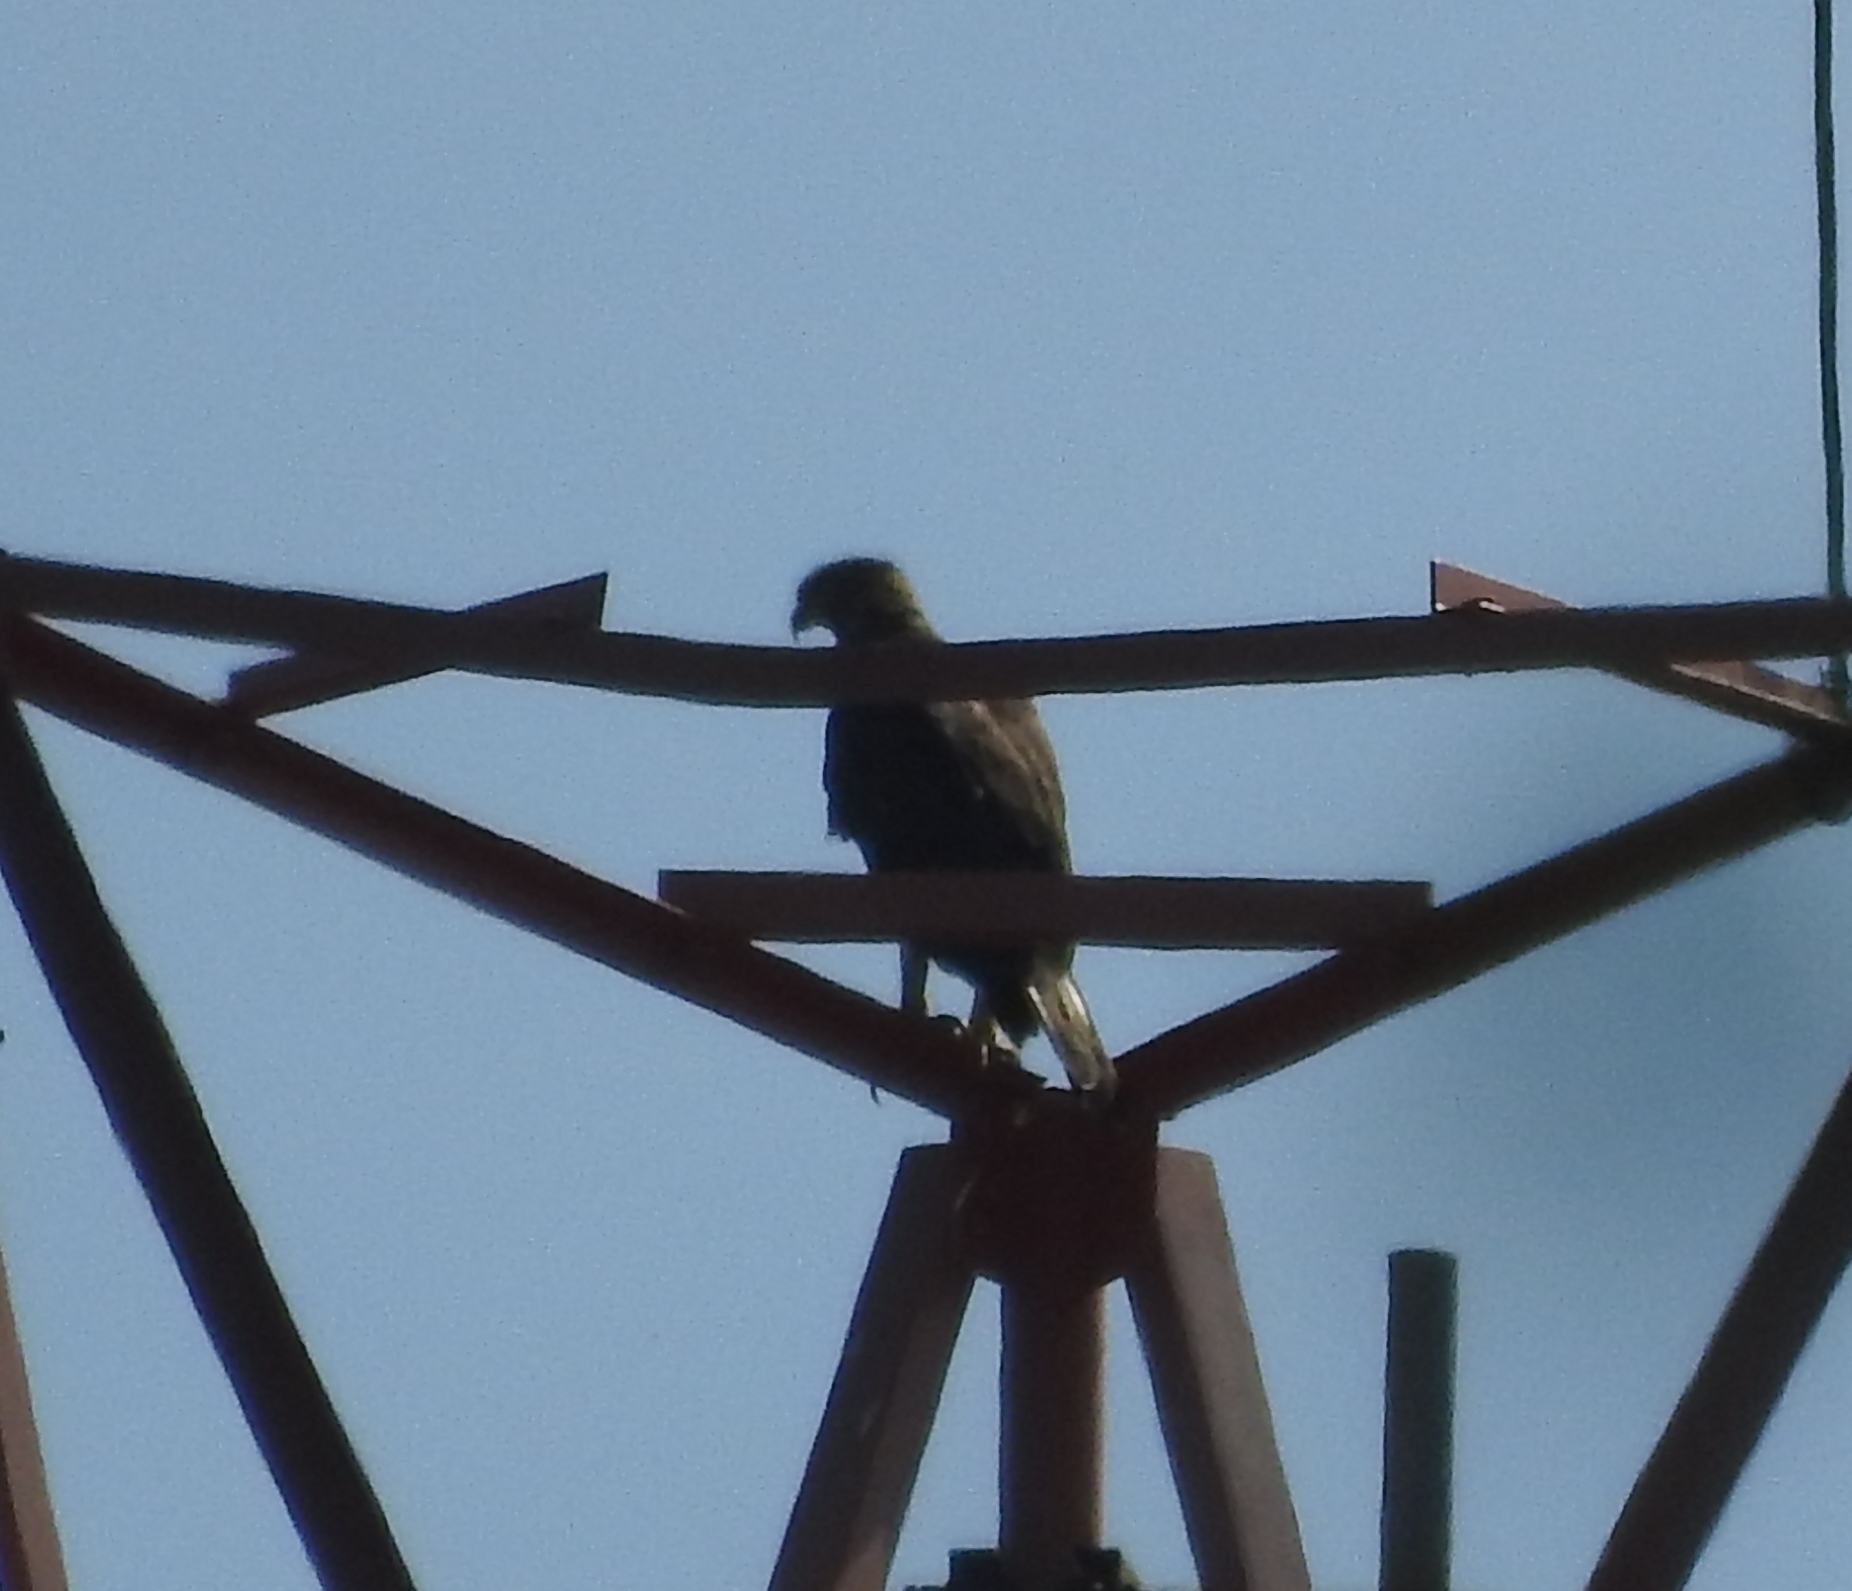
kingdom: Animalia
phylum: Chordata
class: Aves
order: Accipitriformes
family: Accipitridae
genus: Nisaetus
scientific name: Nisaetus cirrhatus
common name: Changeable hawk-eagle
